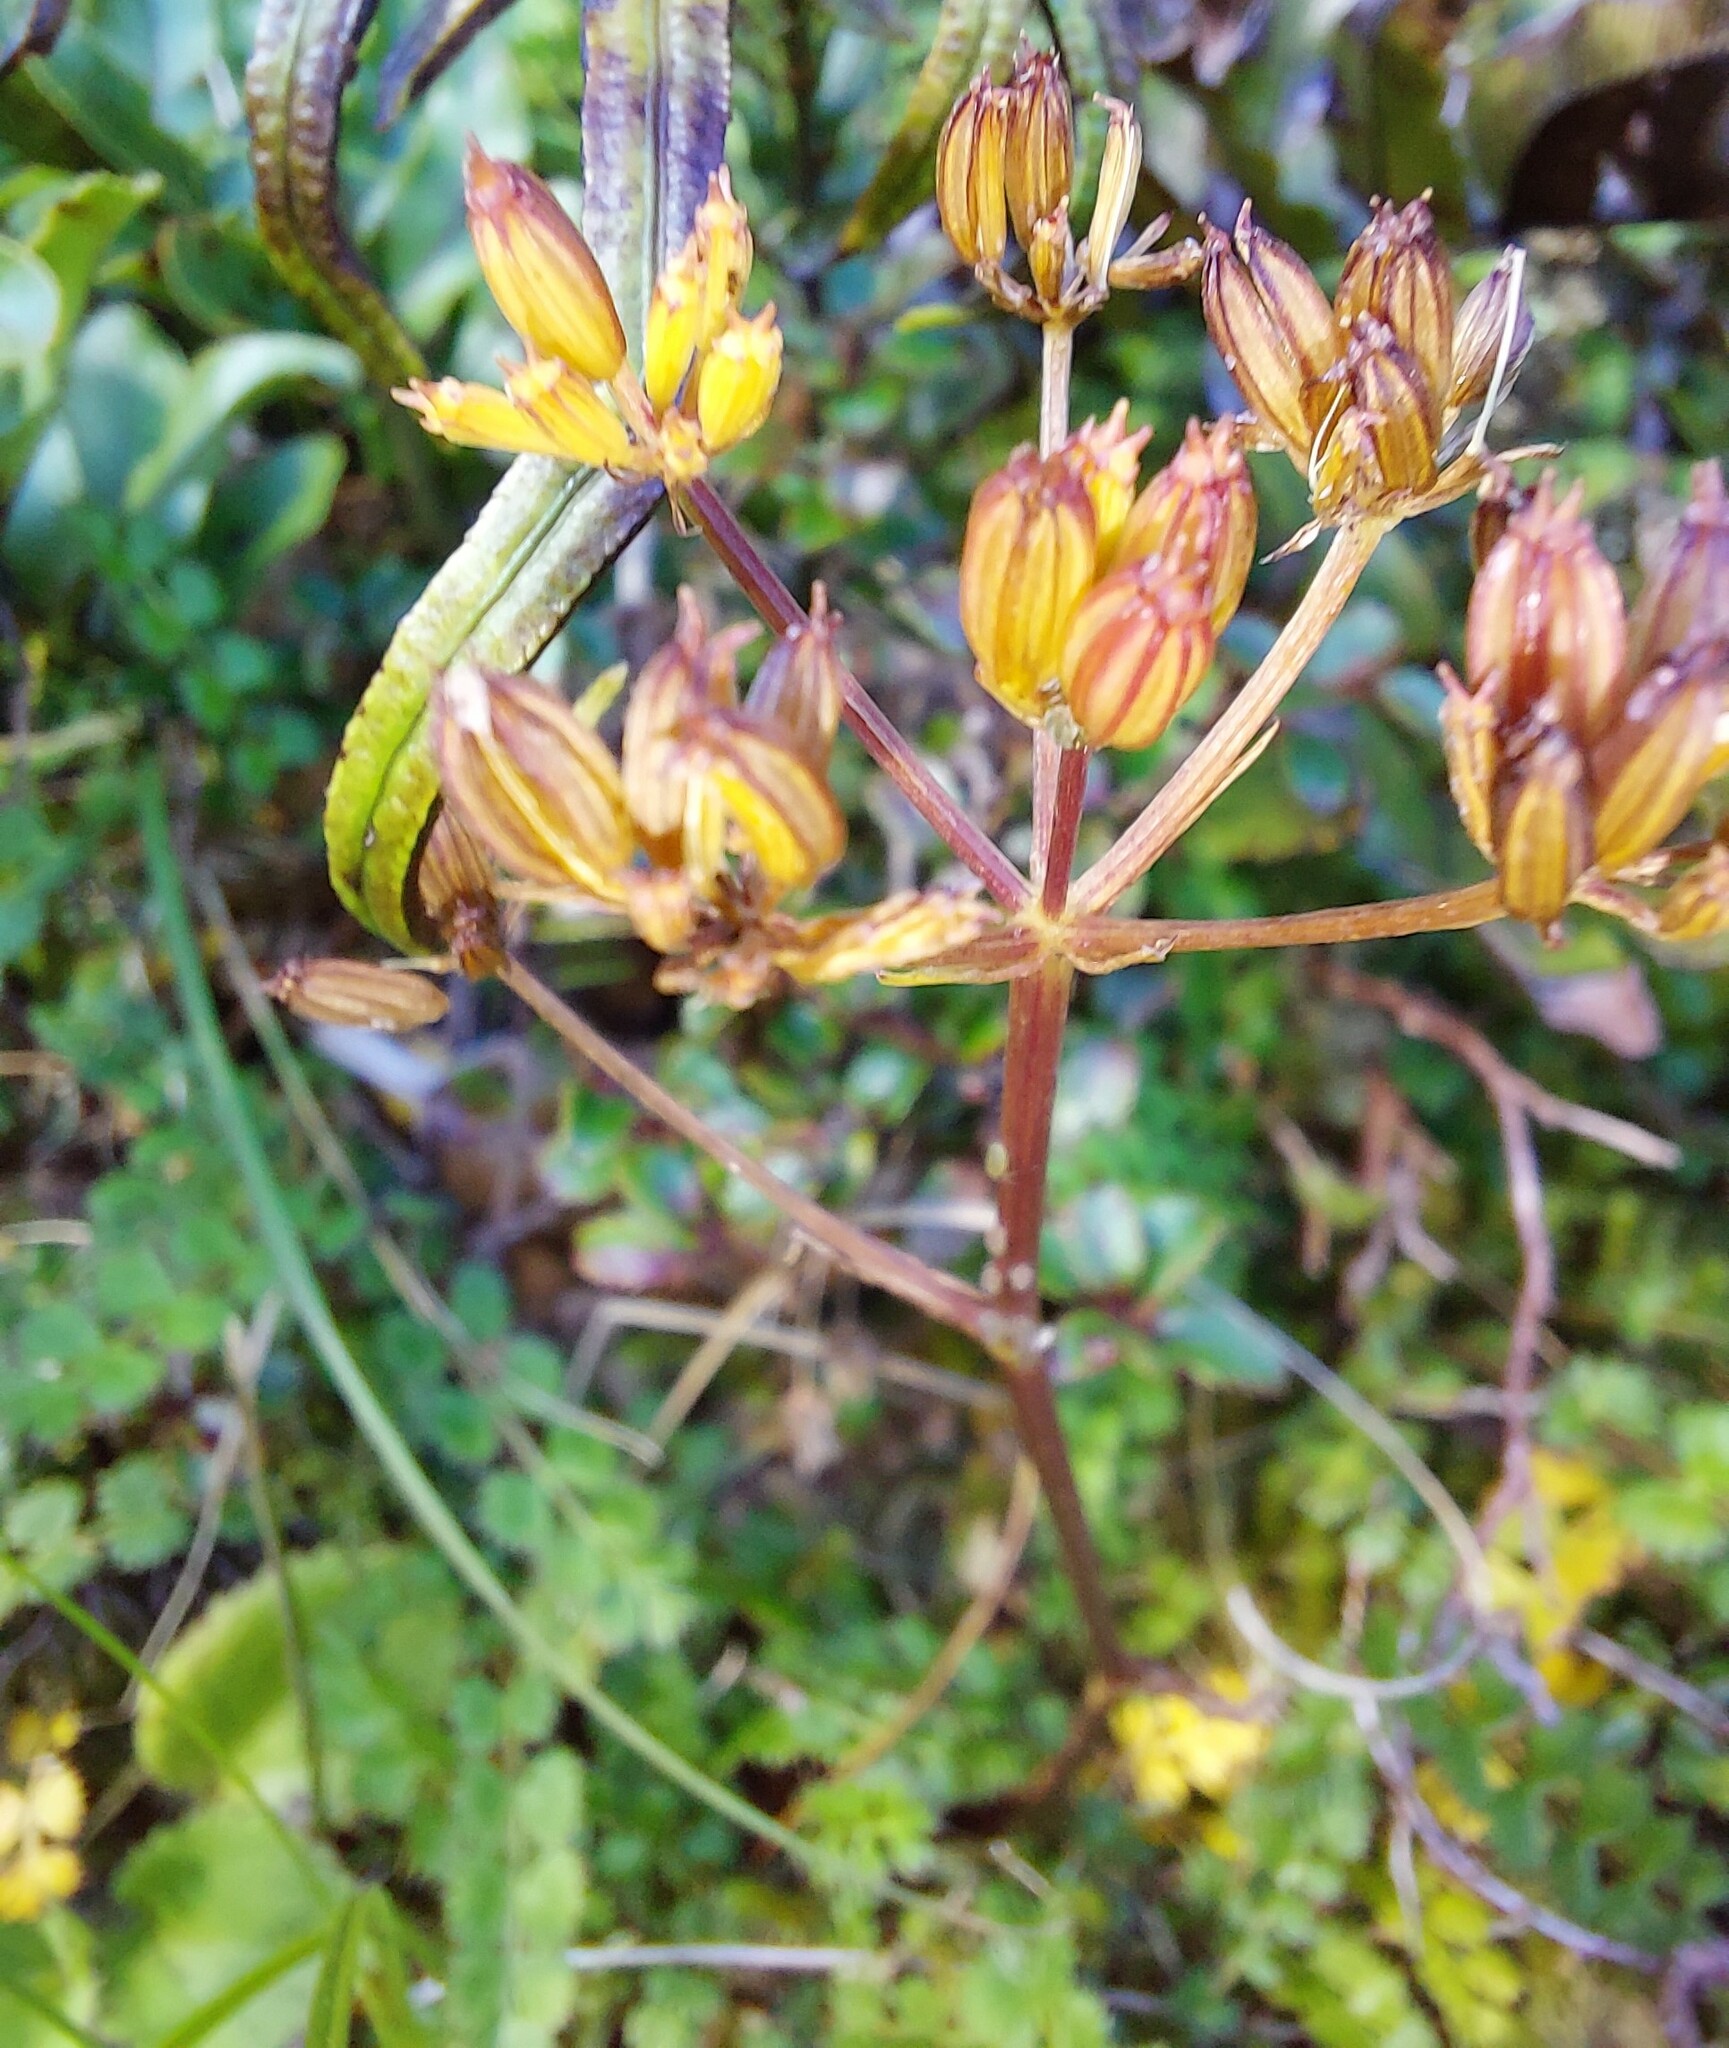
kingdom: Plantae
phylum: Tracheophyta
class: Magnoliopsida
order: Apiales
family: Apiaceae
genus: Anisotome
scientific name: Anisotome aromatica
